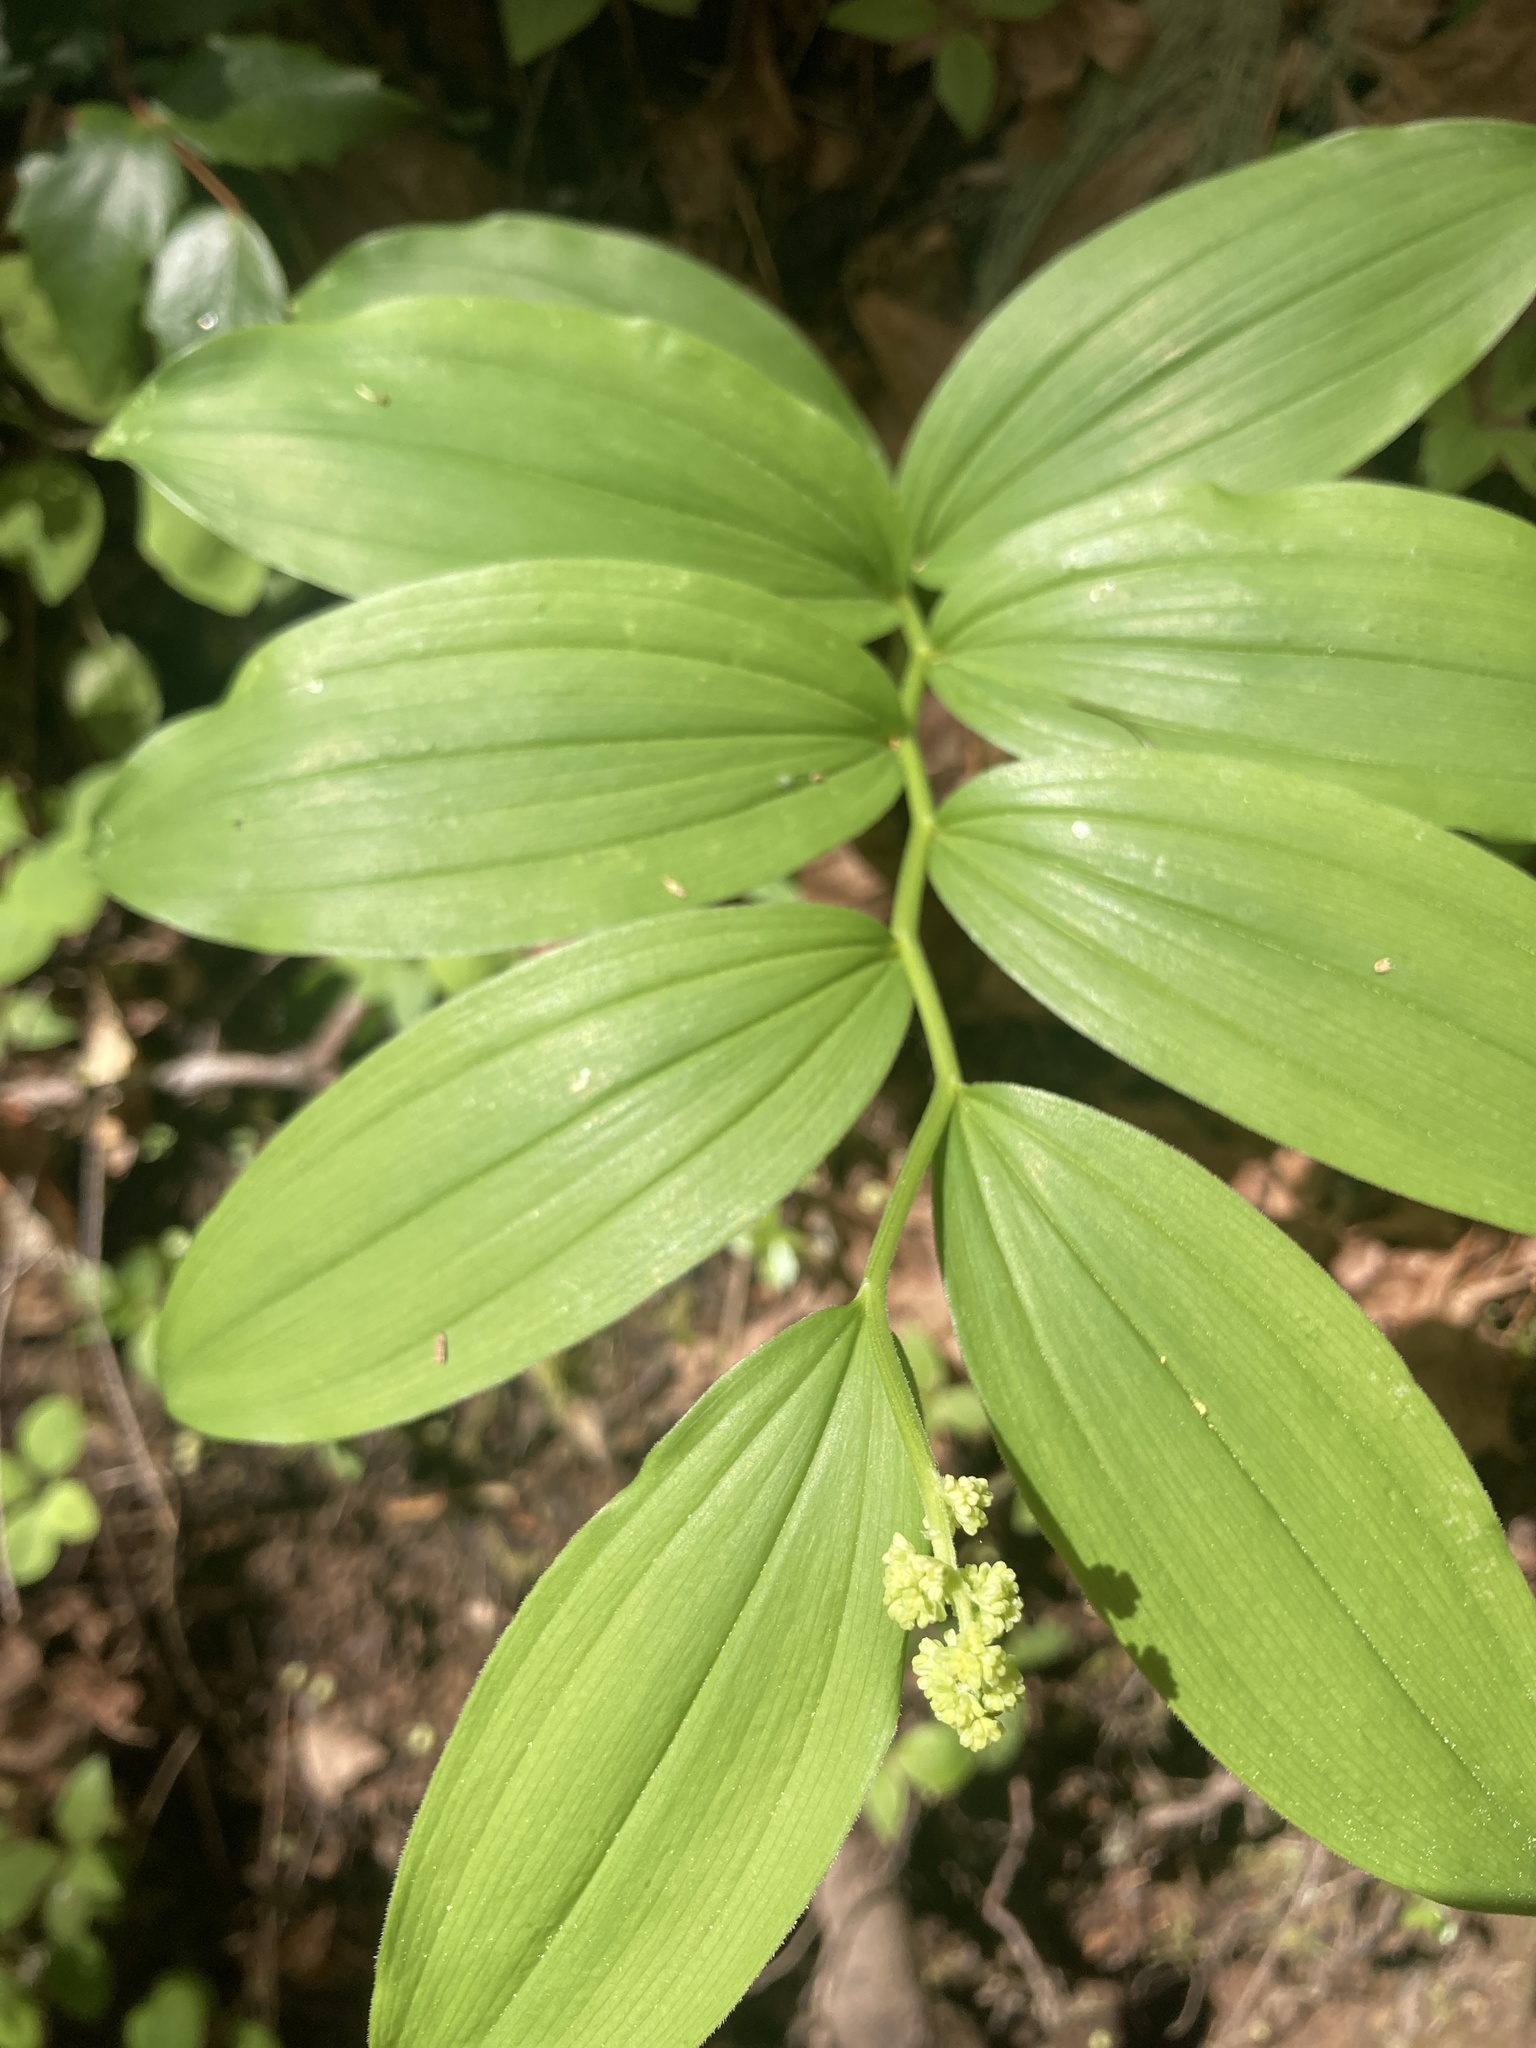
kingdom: Plantae
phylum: Tracheophyta
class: Liliopsida
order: Asparagales
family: Asparagaceae
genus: Maianthemum
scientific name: Maianthemum racemosum
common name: False spikenard
